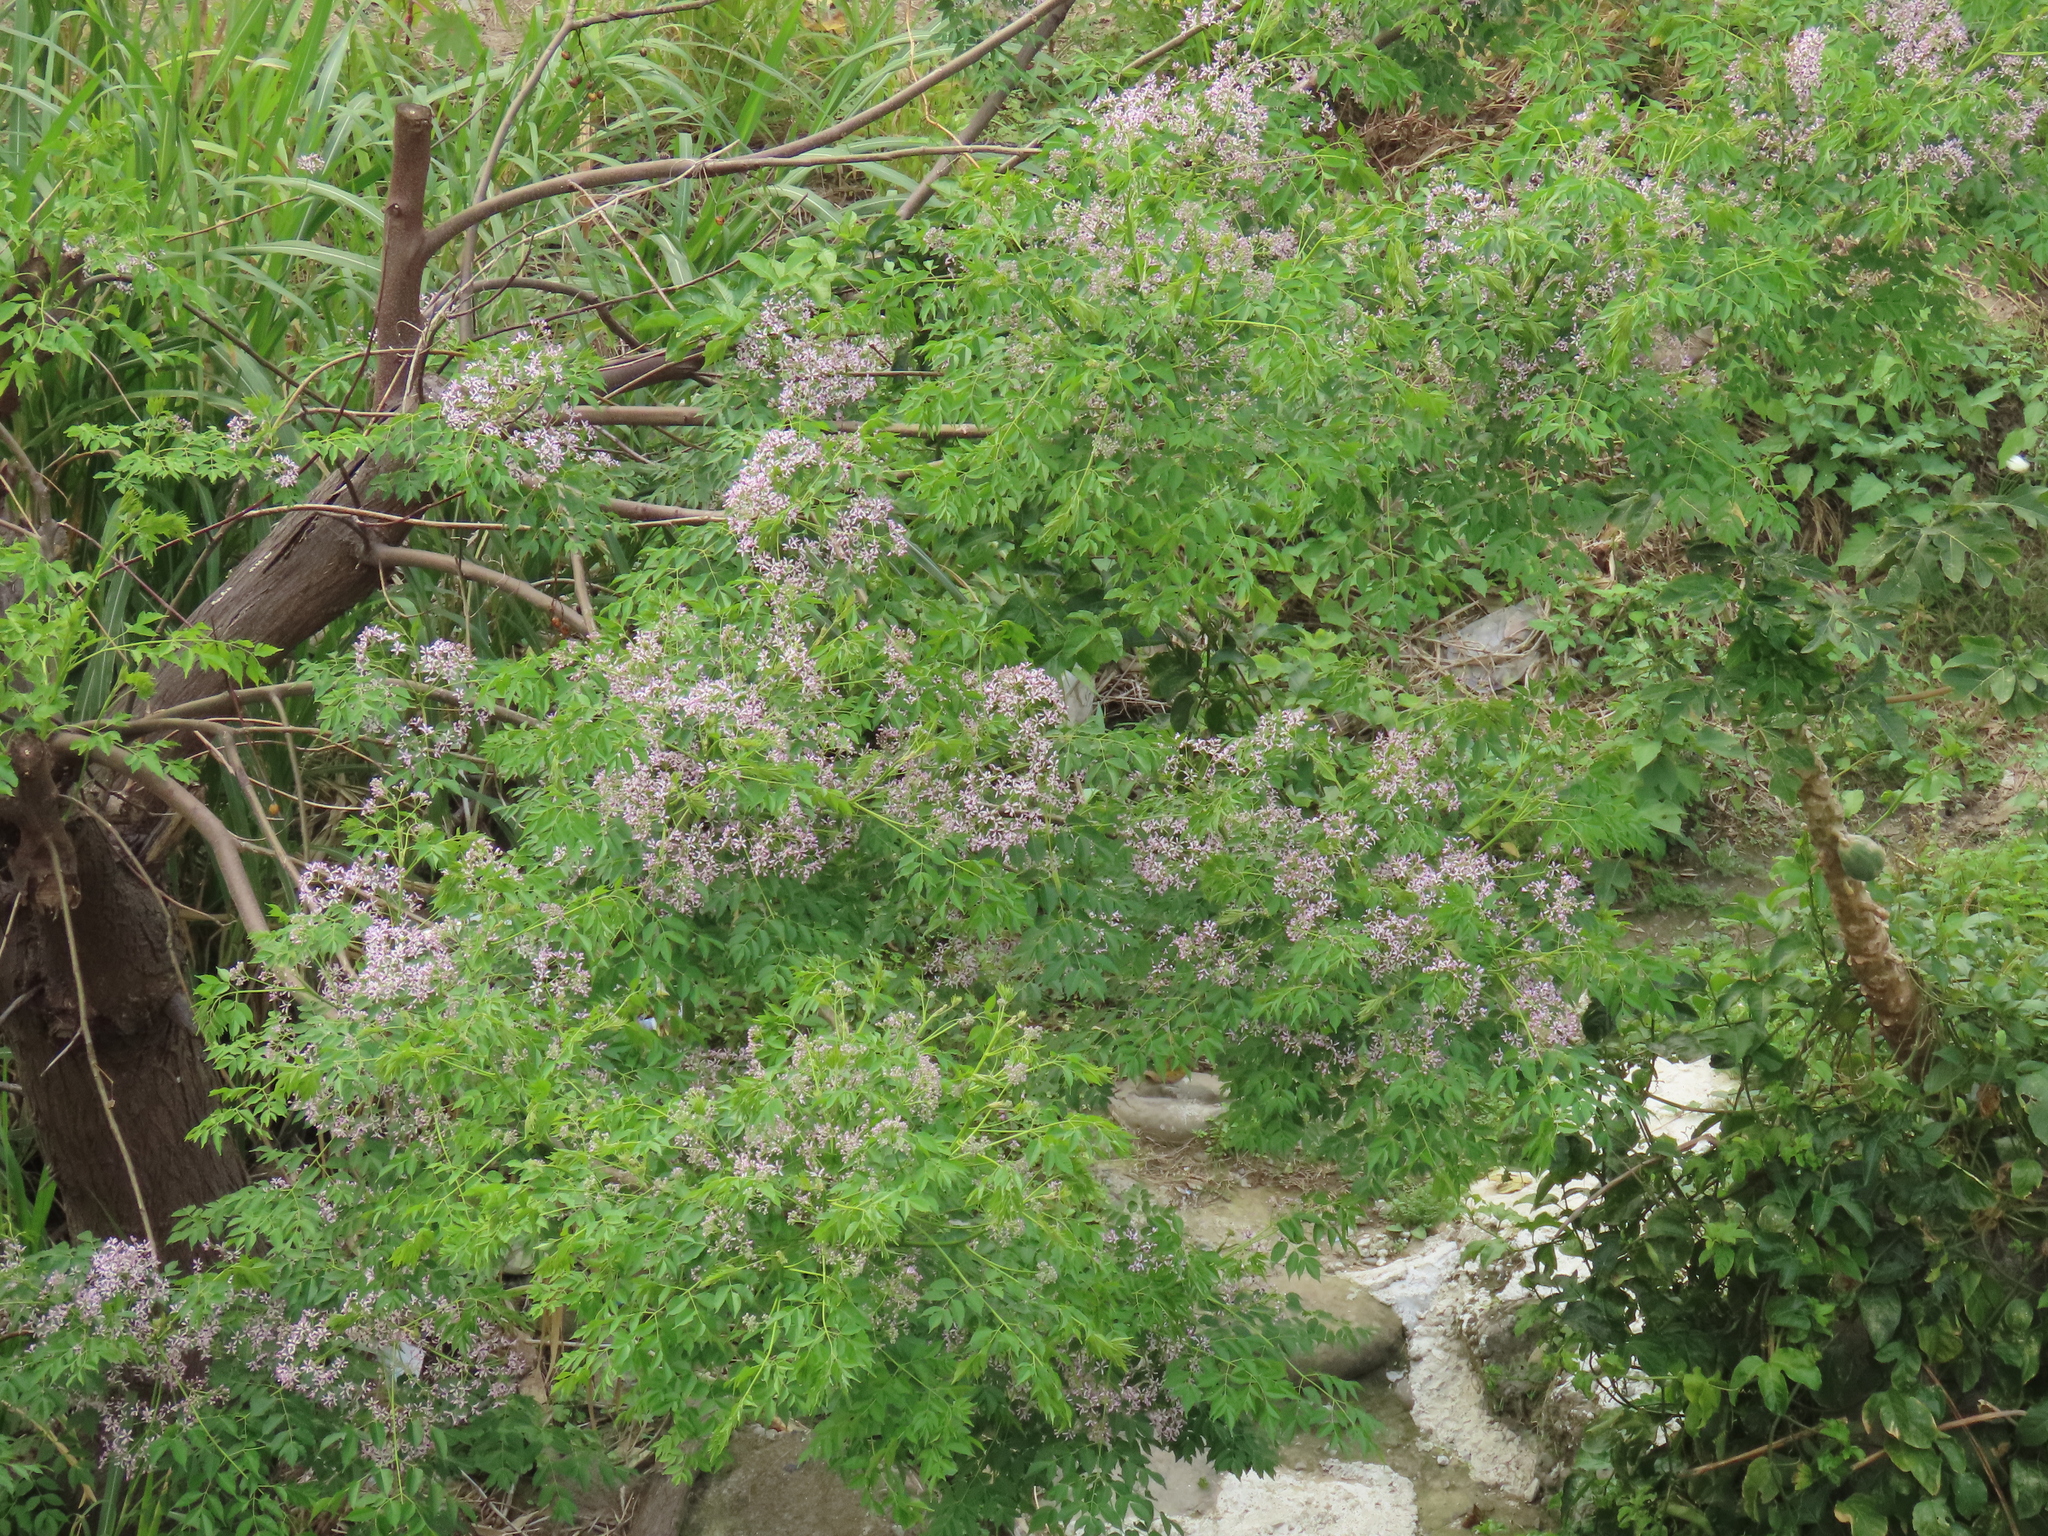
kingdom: Plantae
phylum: Tracheophyta
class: Magnoliopsida
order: Sapindales
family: Meliaceae
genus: Melia
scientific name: Melia azedarach
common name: Chinaberrytree
